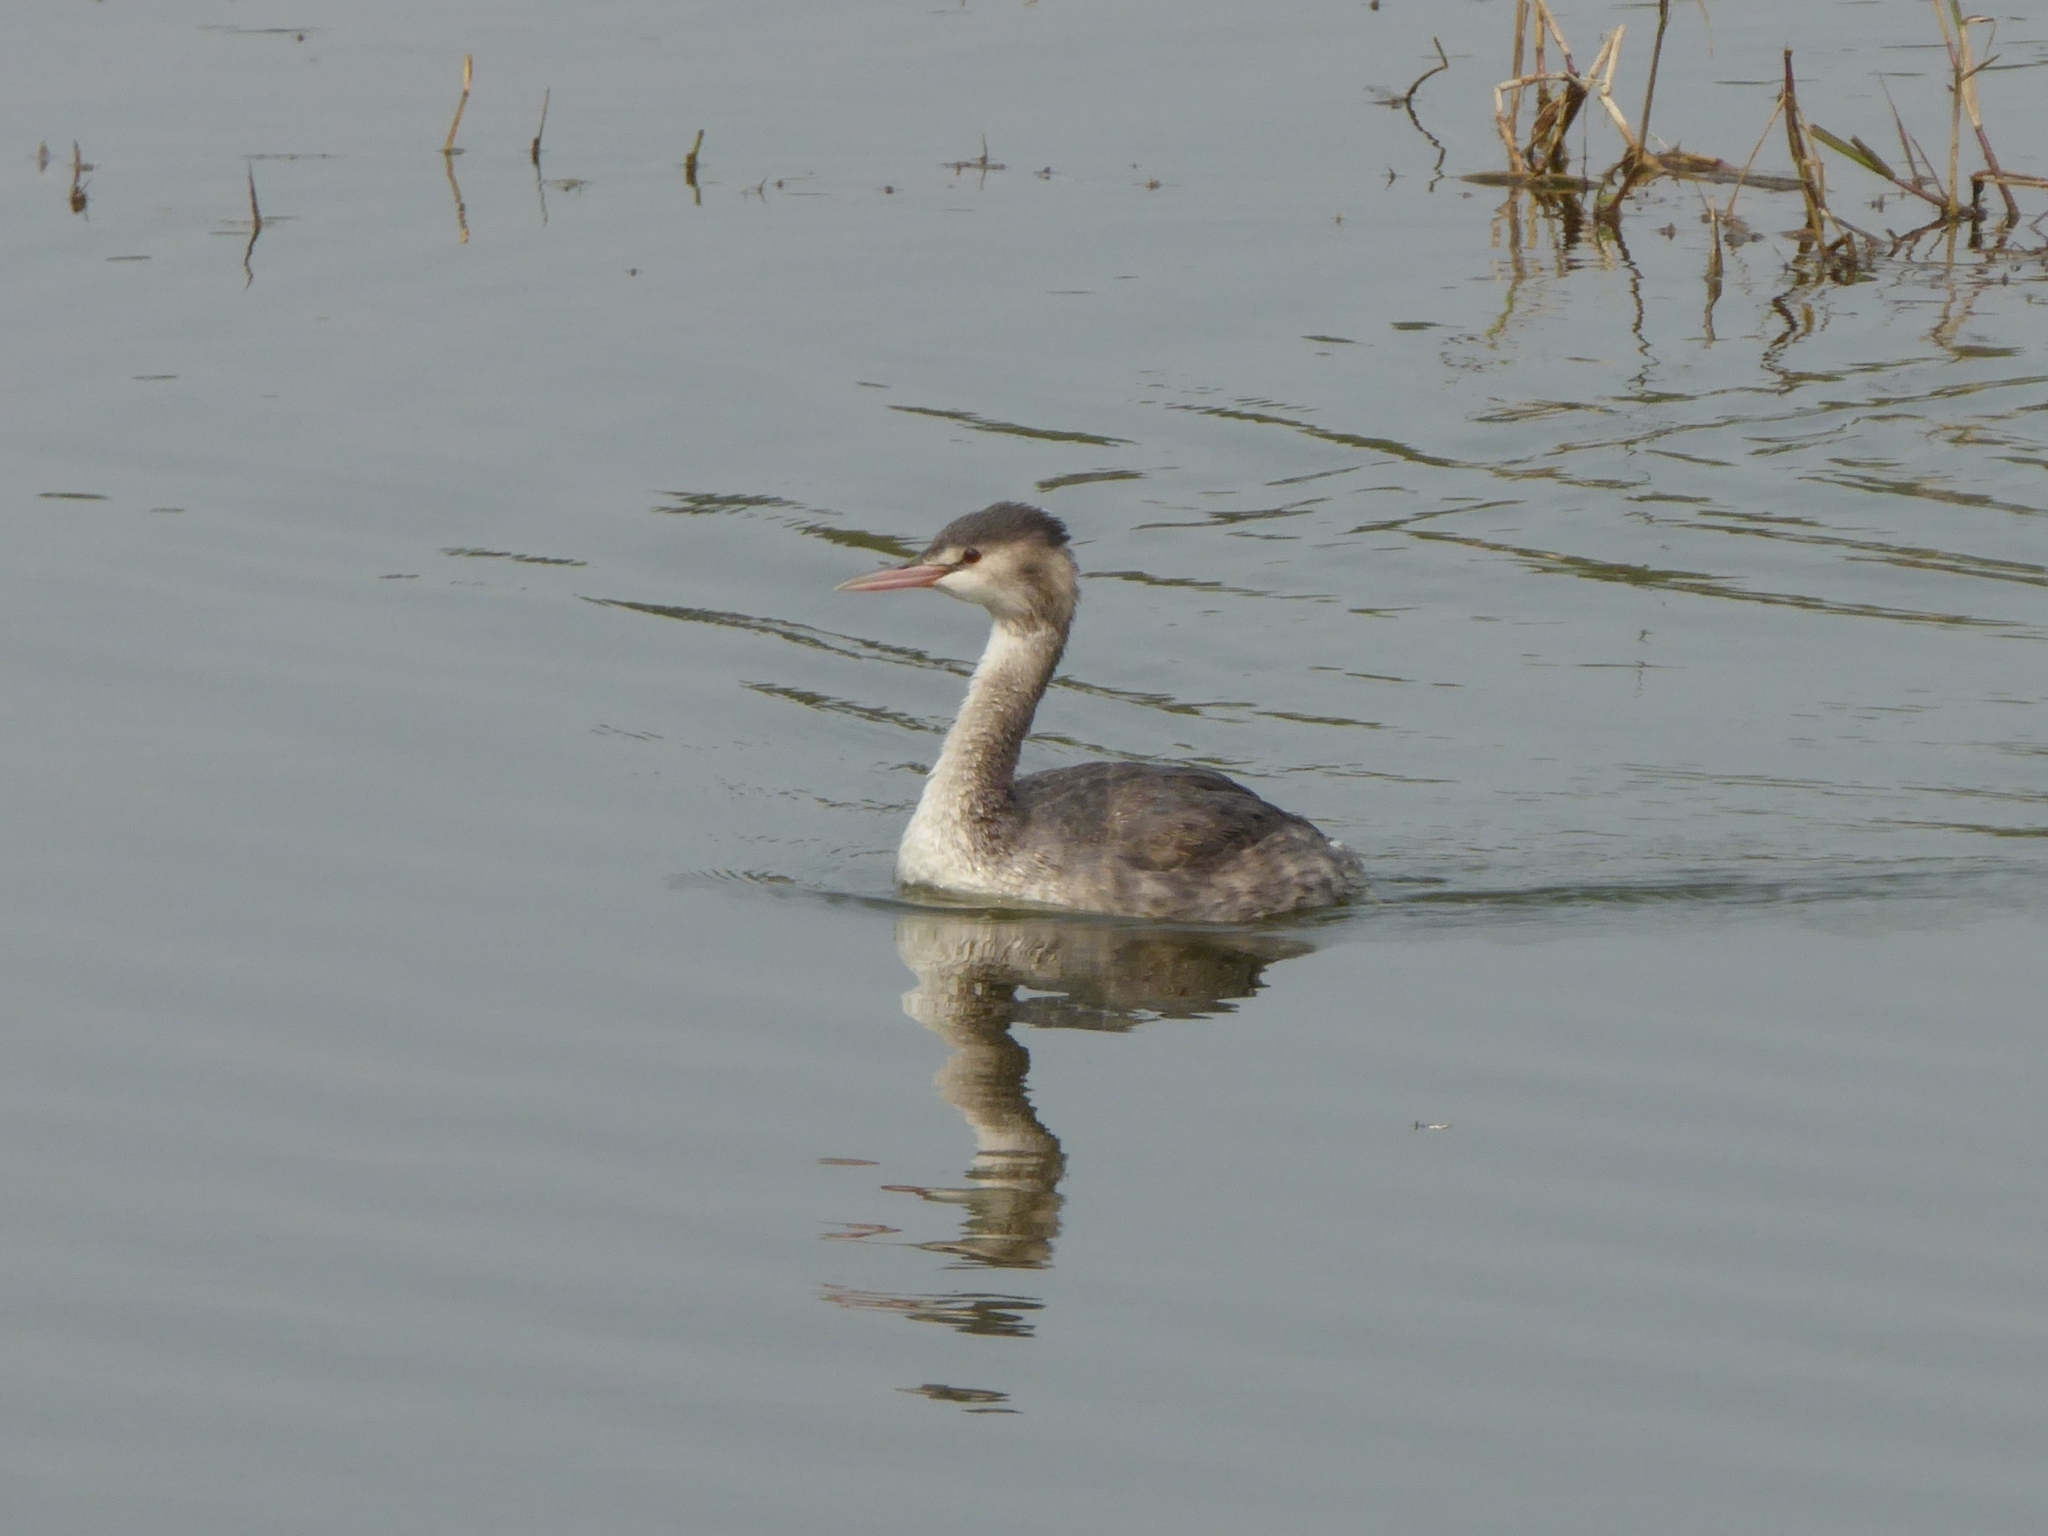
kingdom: Animalia
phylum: Chordata
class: Aves
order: Podicipediformes
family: Podicipedidae
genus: Podiceps
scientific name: Podiceps cristatus
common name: Great crested grebe
